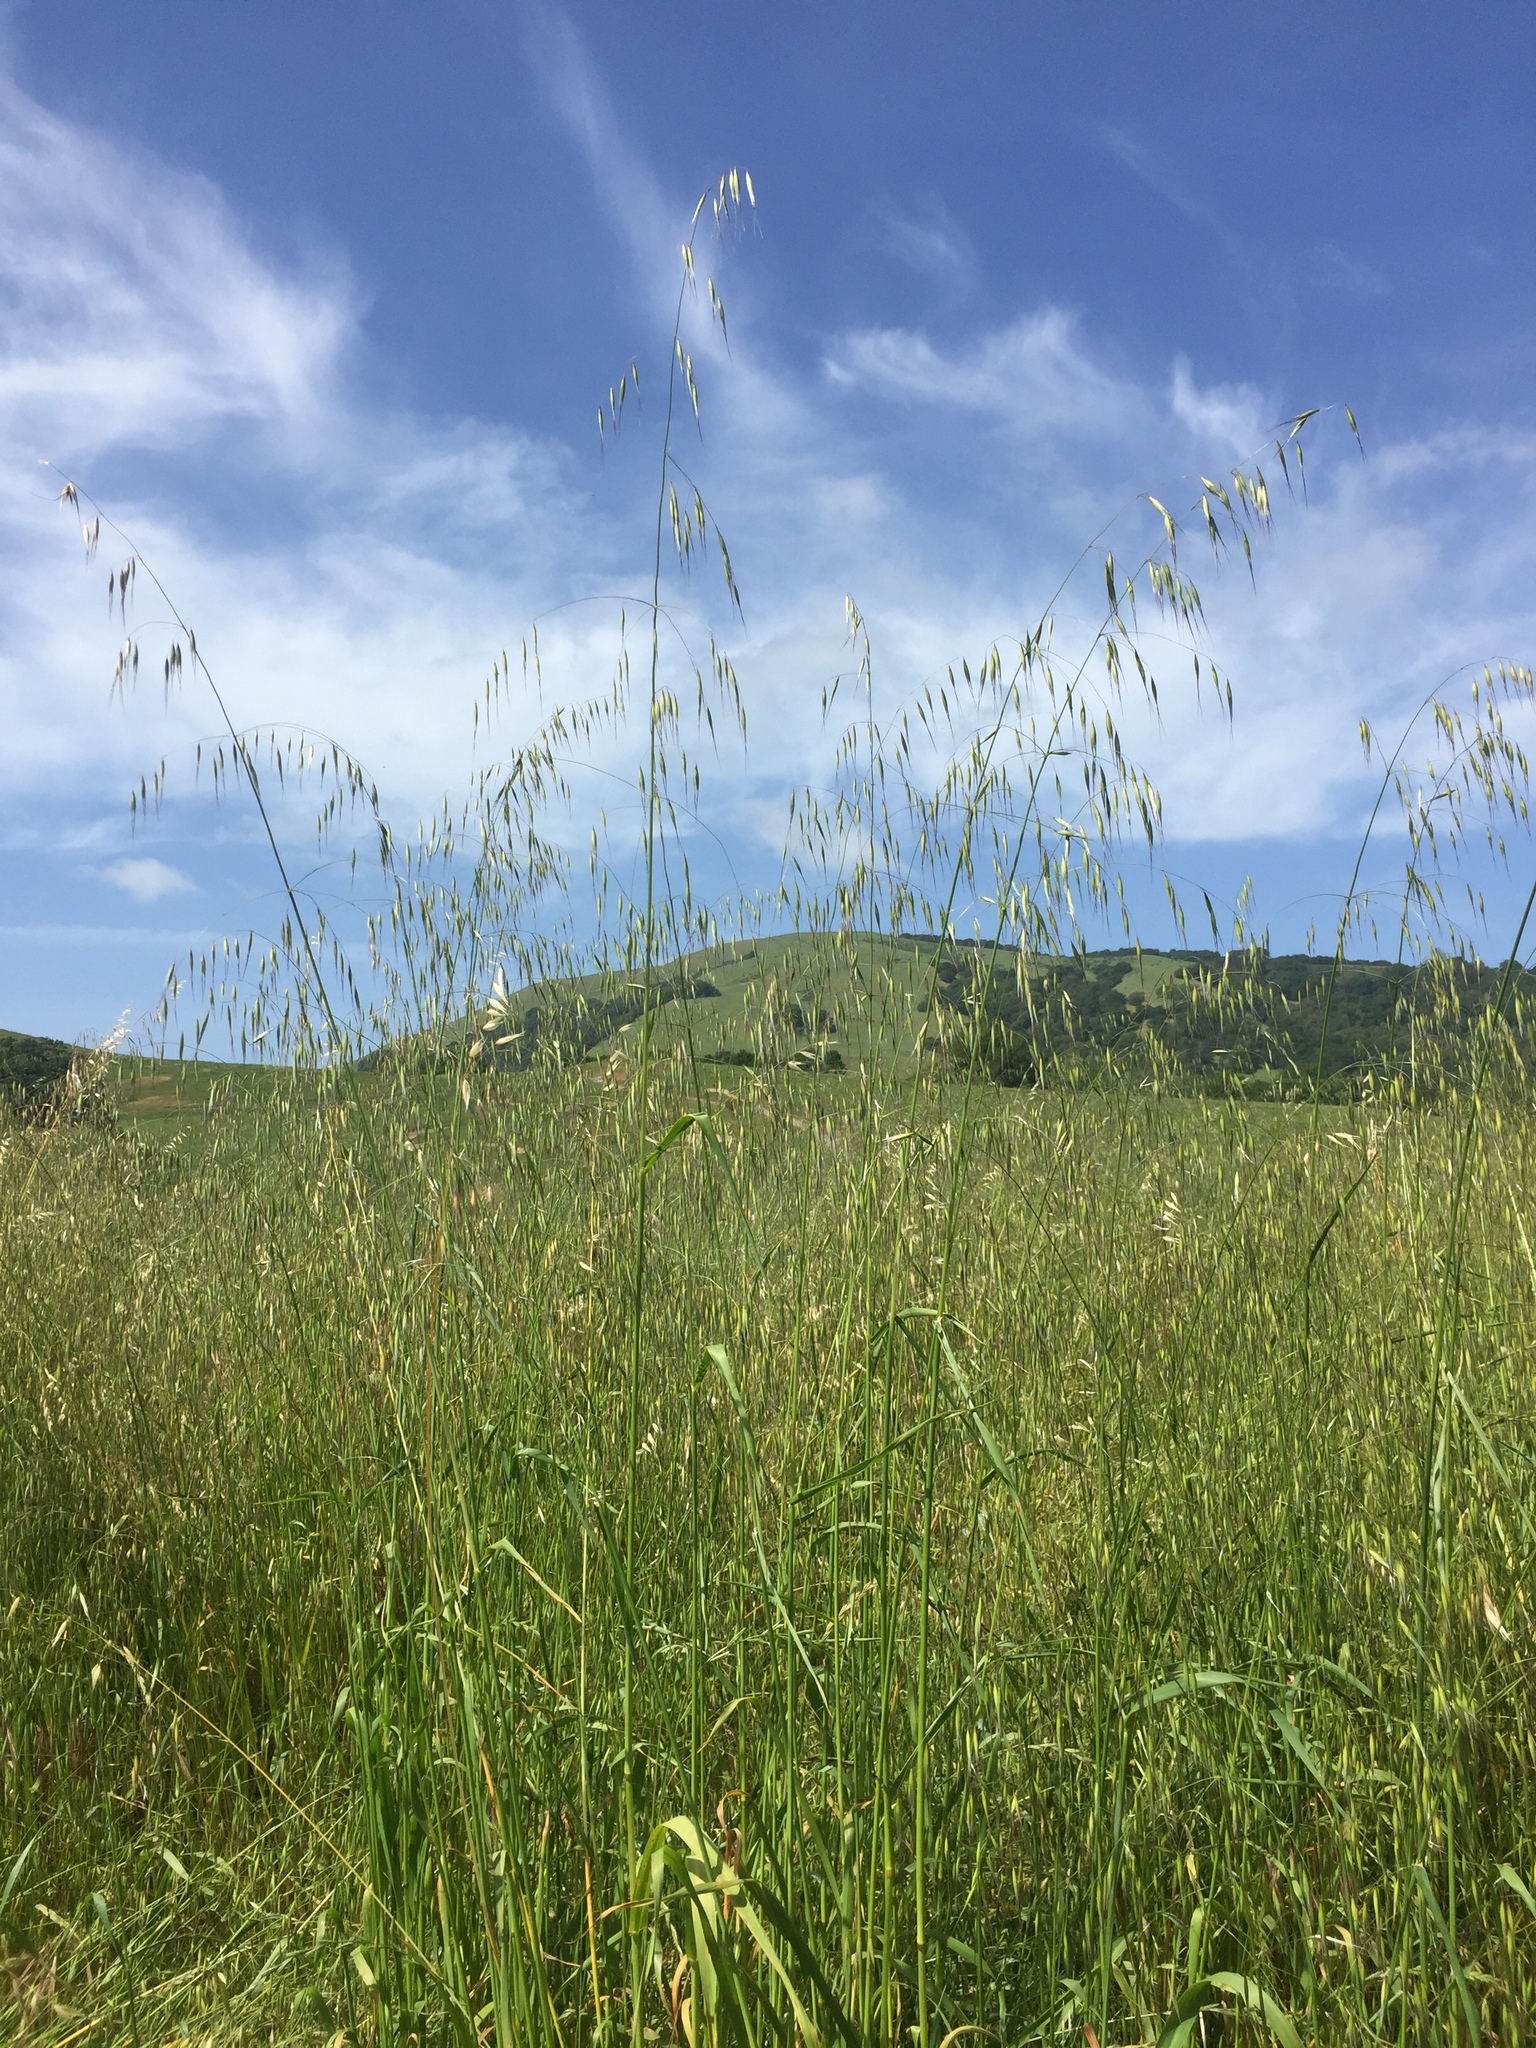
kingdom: Plantae
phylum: Tracheophyta
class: Liliopsida
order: Poales
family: Poaceae
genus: Avena
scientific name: Avena barbata
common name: Slender oat
